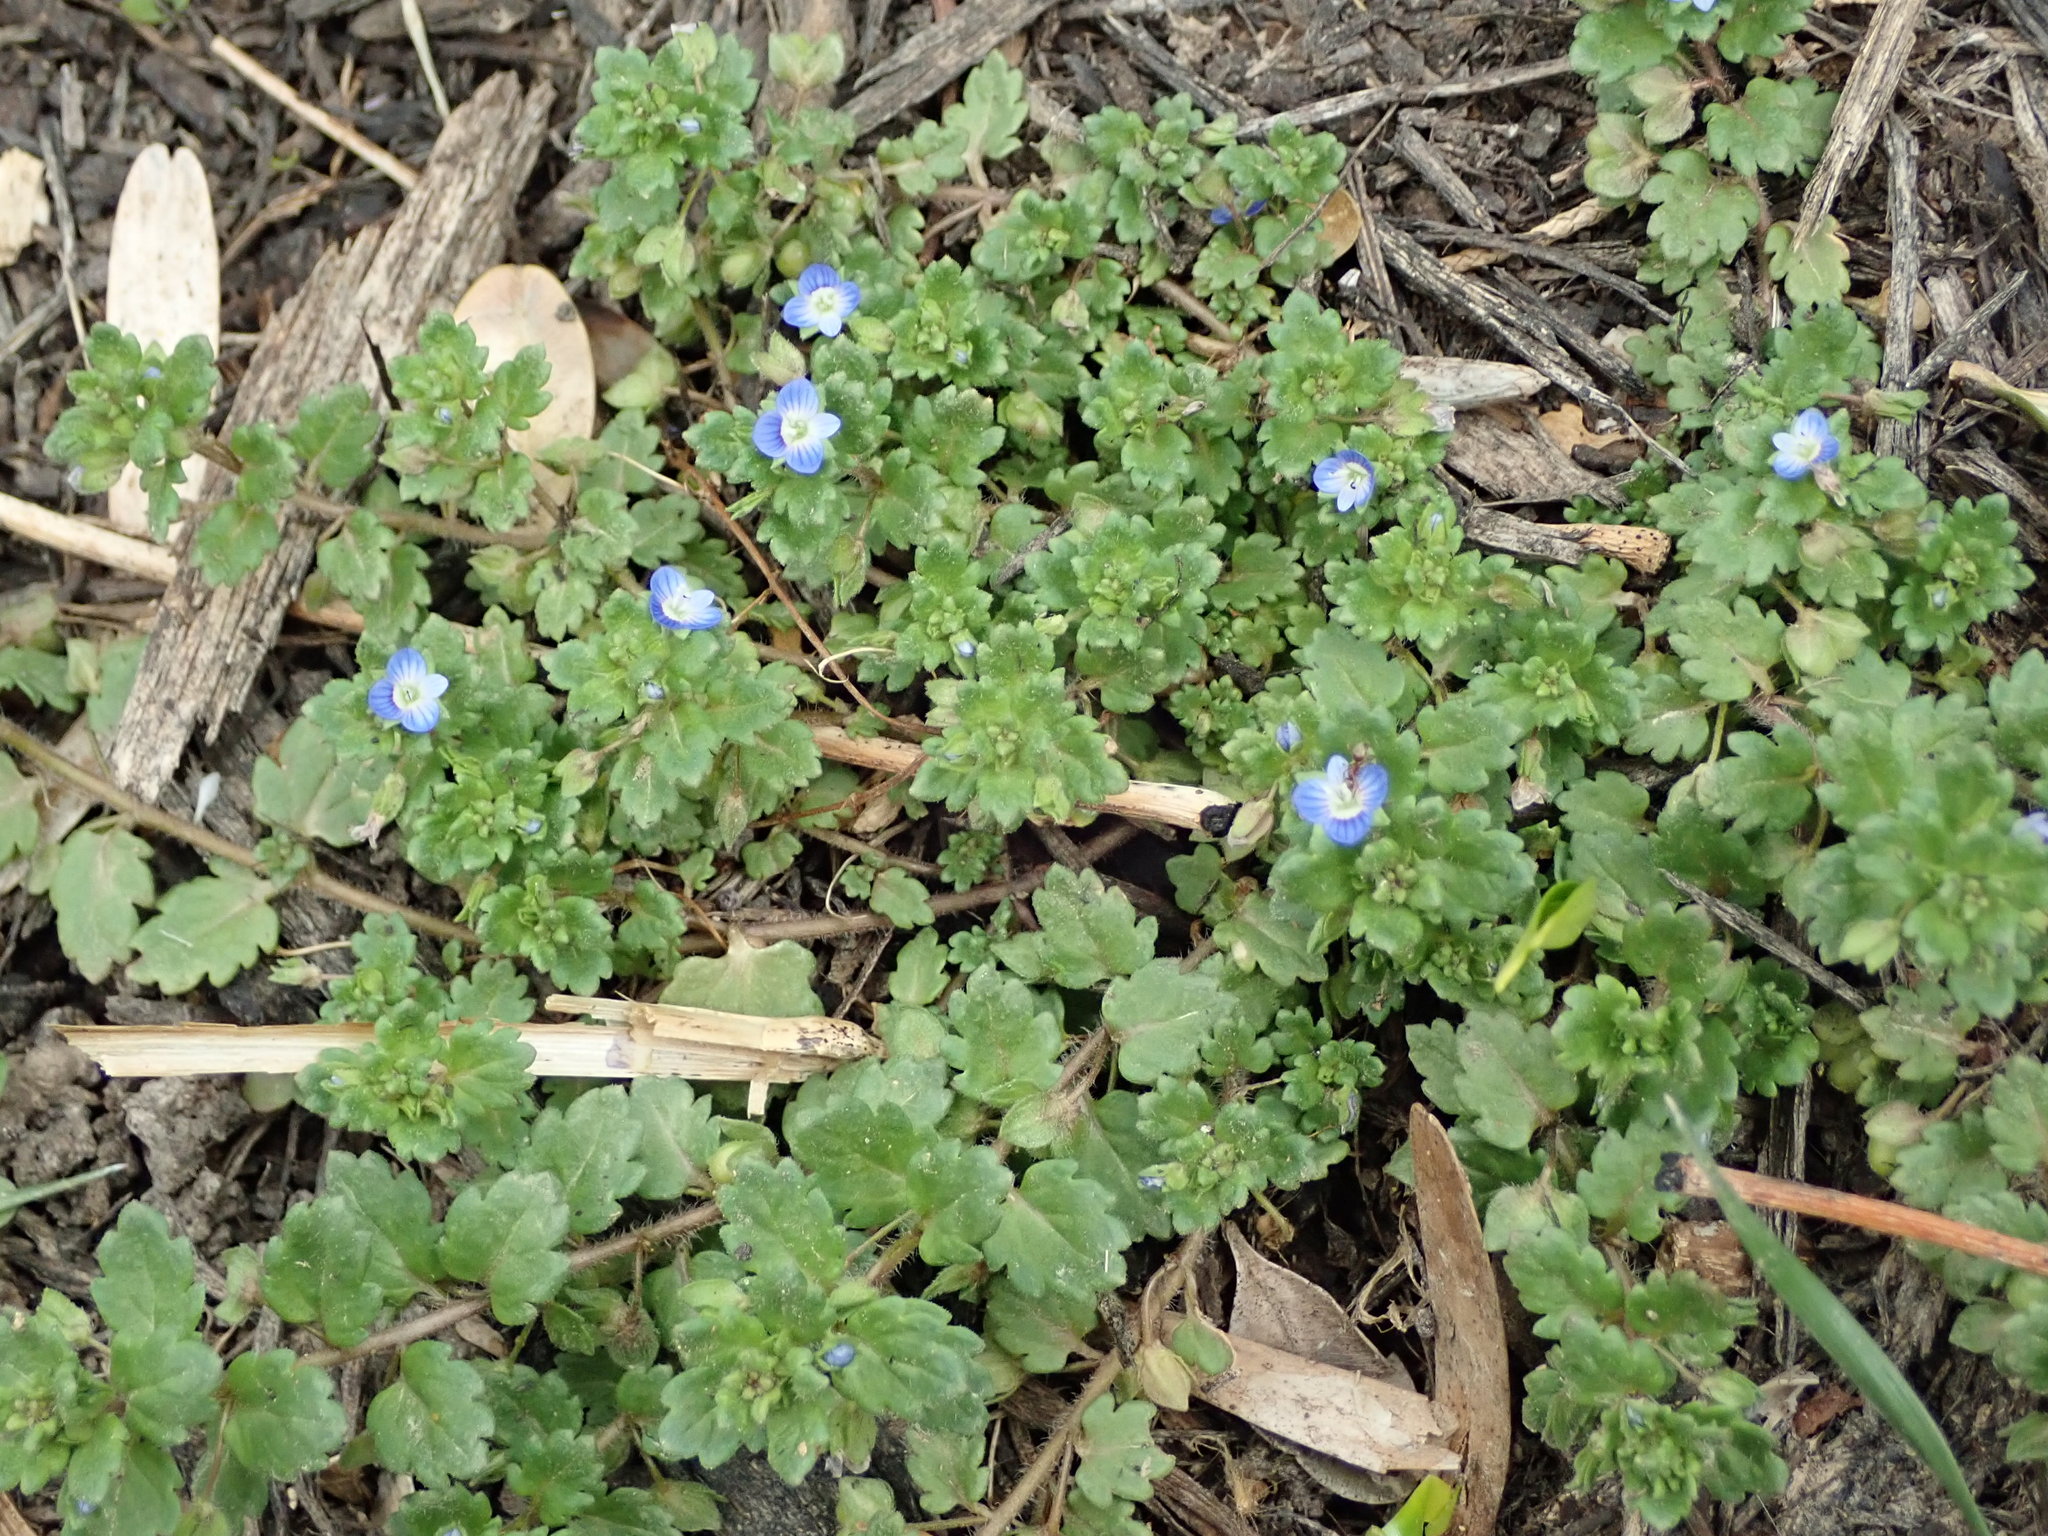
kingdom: Plantae
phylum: Tracheophyta
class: Magnoliopsida
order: Lamiales
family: Plantaginaceae
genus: Veronica
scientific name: Veronica polita
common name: Grey field-speedwell
